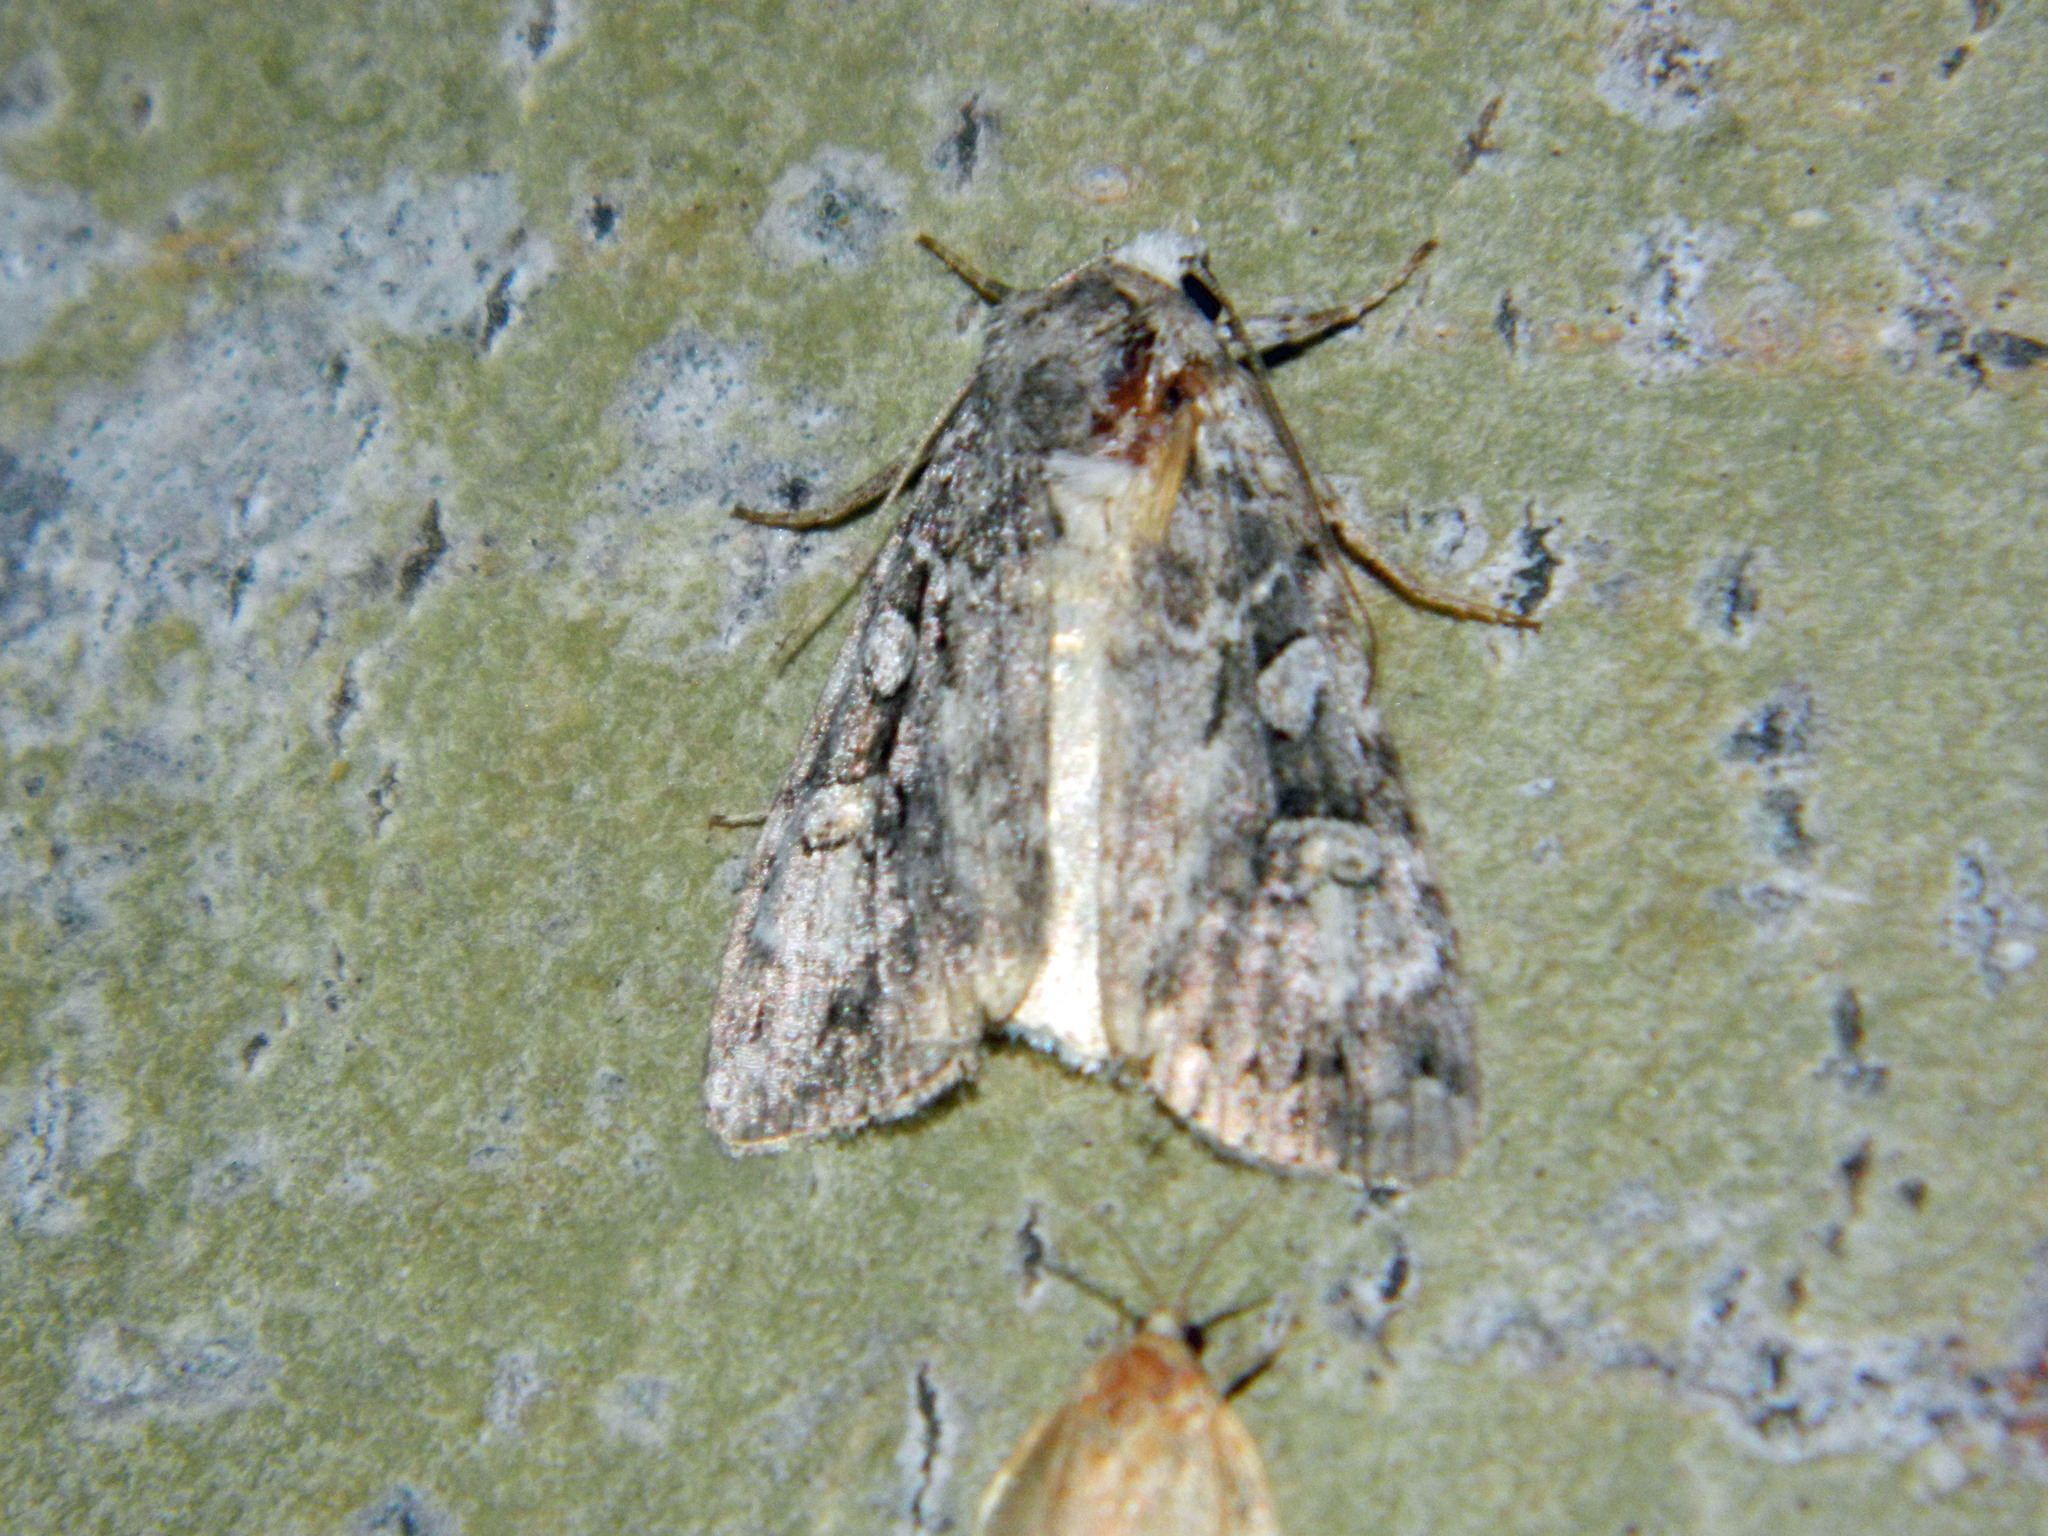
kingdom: Animalia
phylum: Arthropoda
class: Insecta
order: Lepidoptera
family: Noctuidae
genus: Anaplectoides
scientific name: Anaplectoides pressus
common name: Dappled dart
